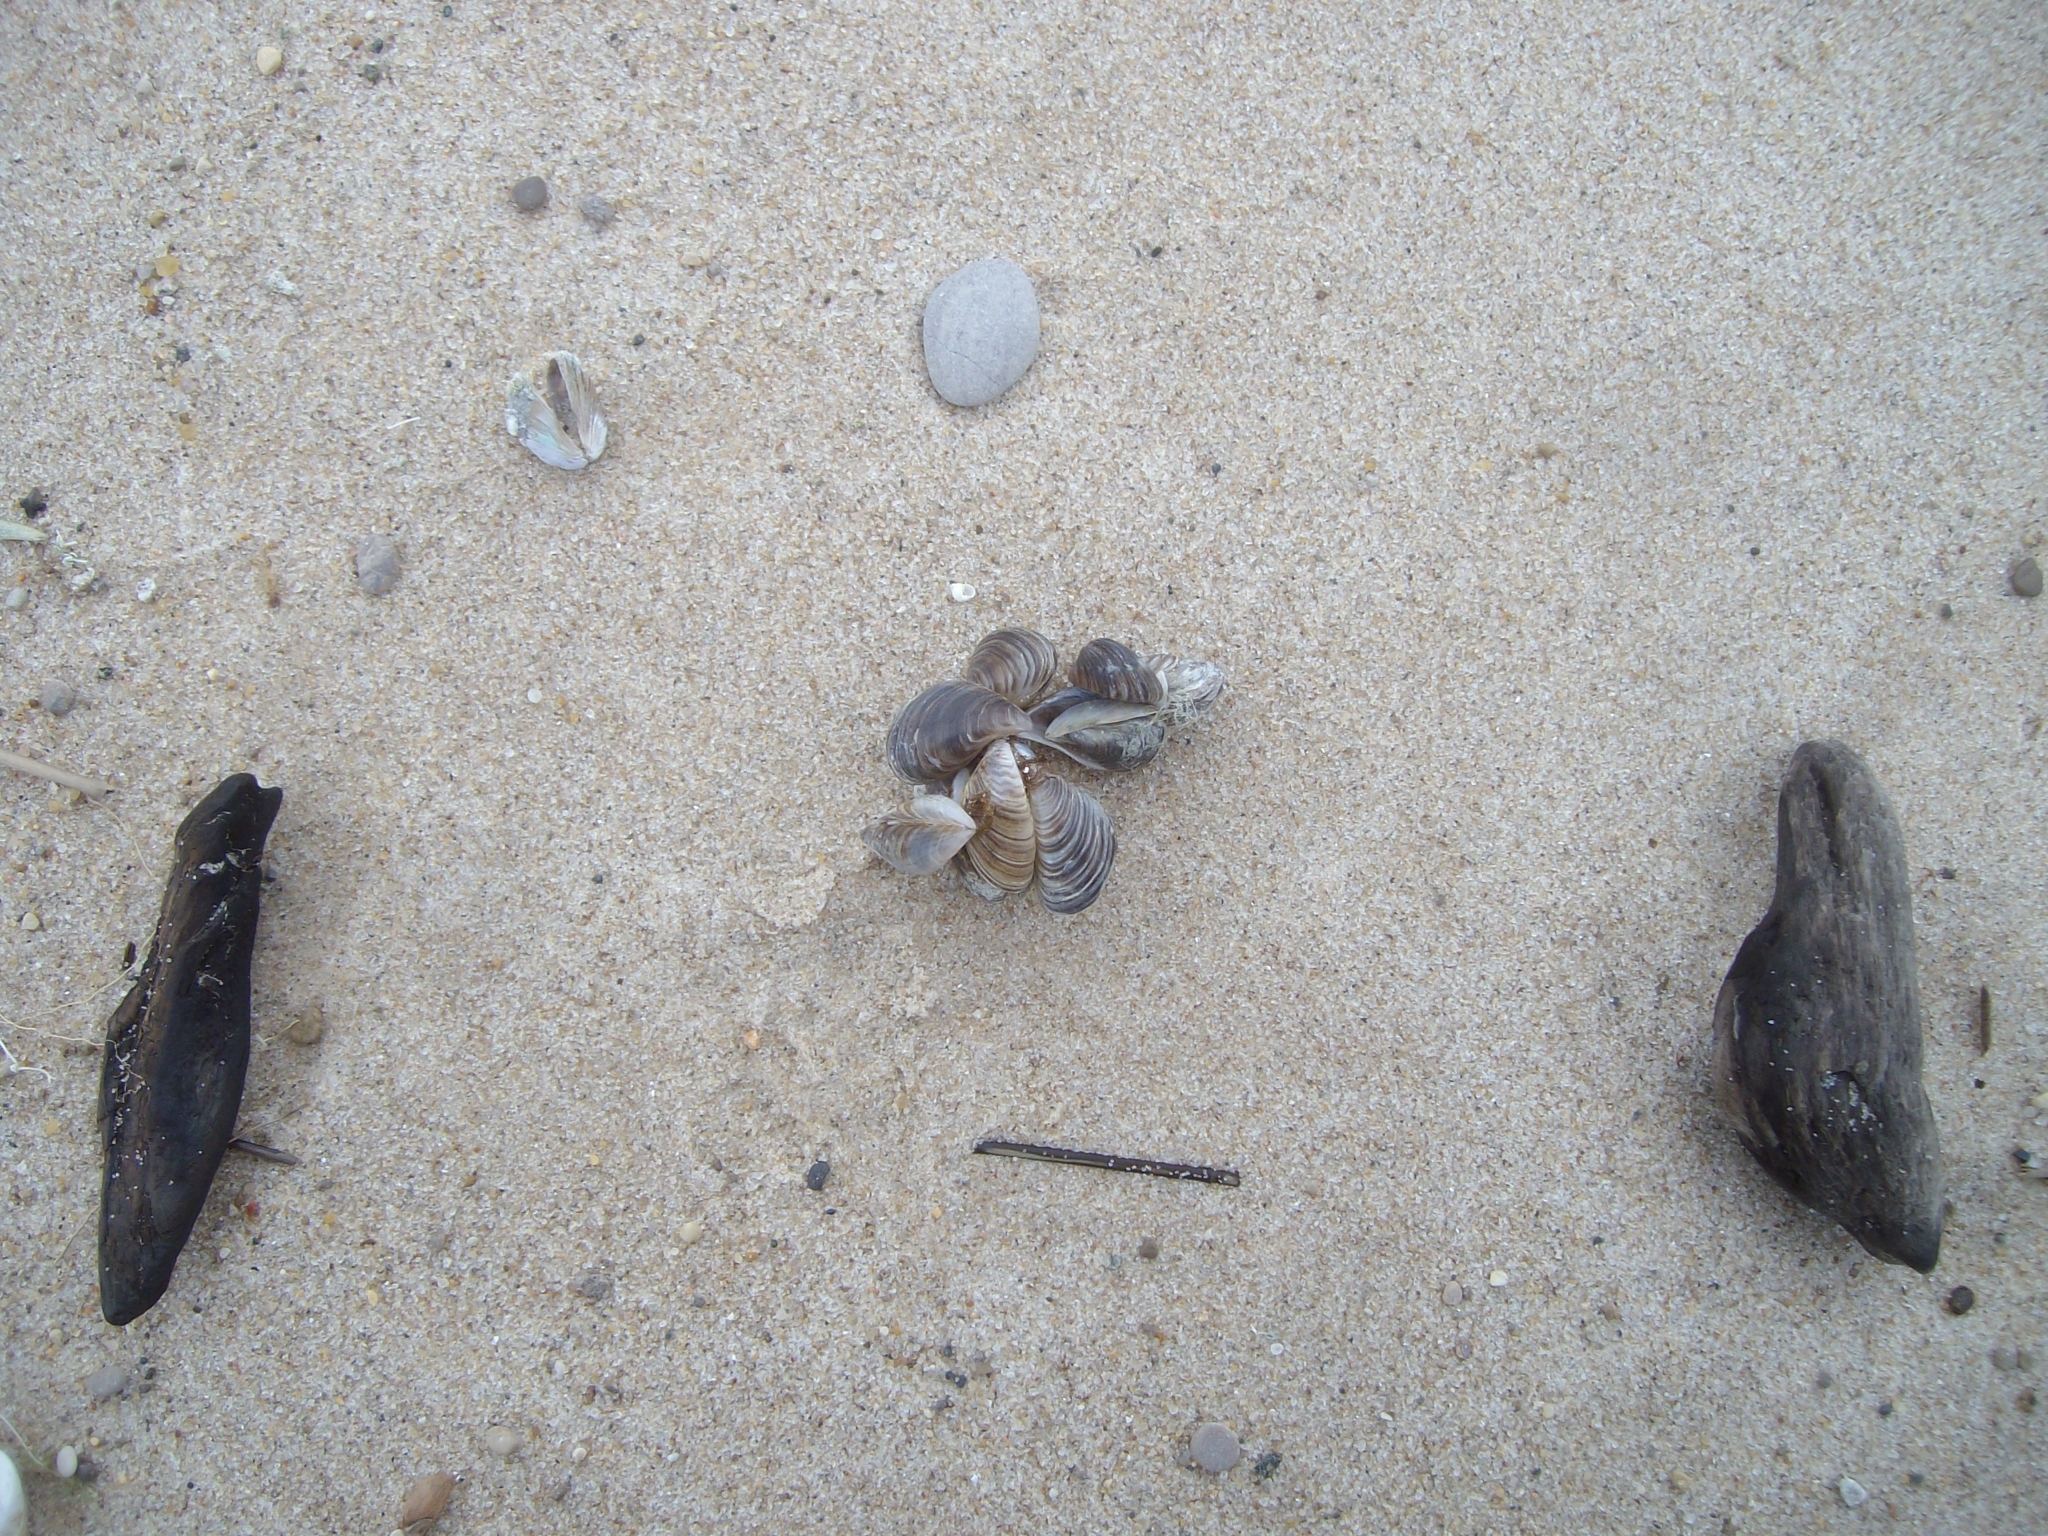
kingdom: Animalia
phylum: Mollusca
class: Bivalvia
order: Myida
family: Dreissenidae
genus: Dreissena
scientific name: Dreissena polymorpha
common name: Zebra mussel
